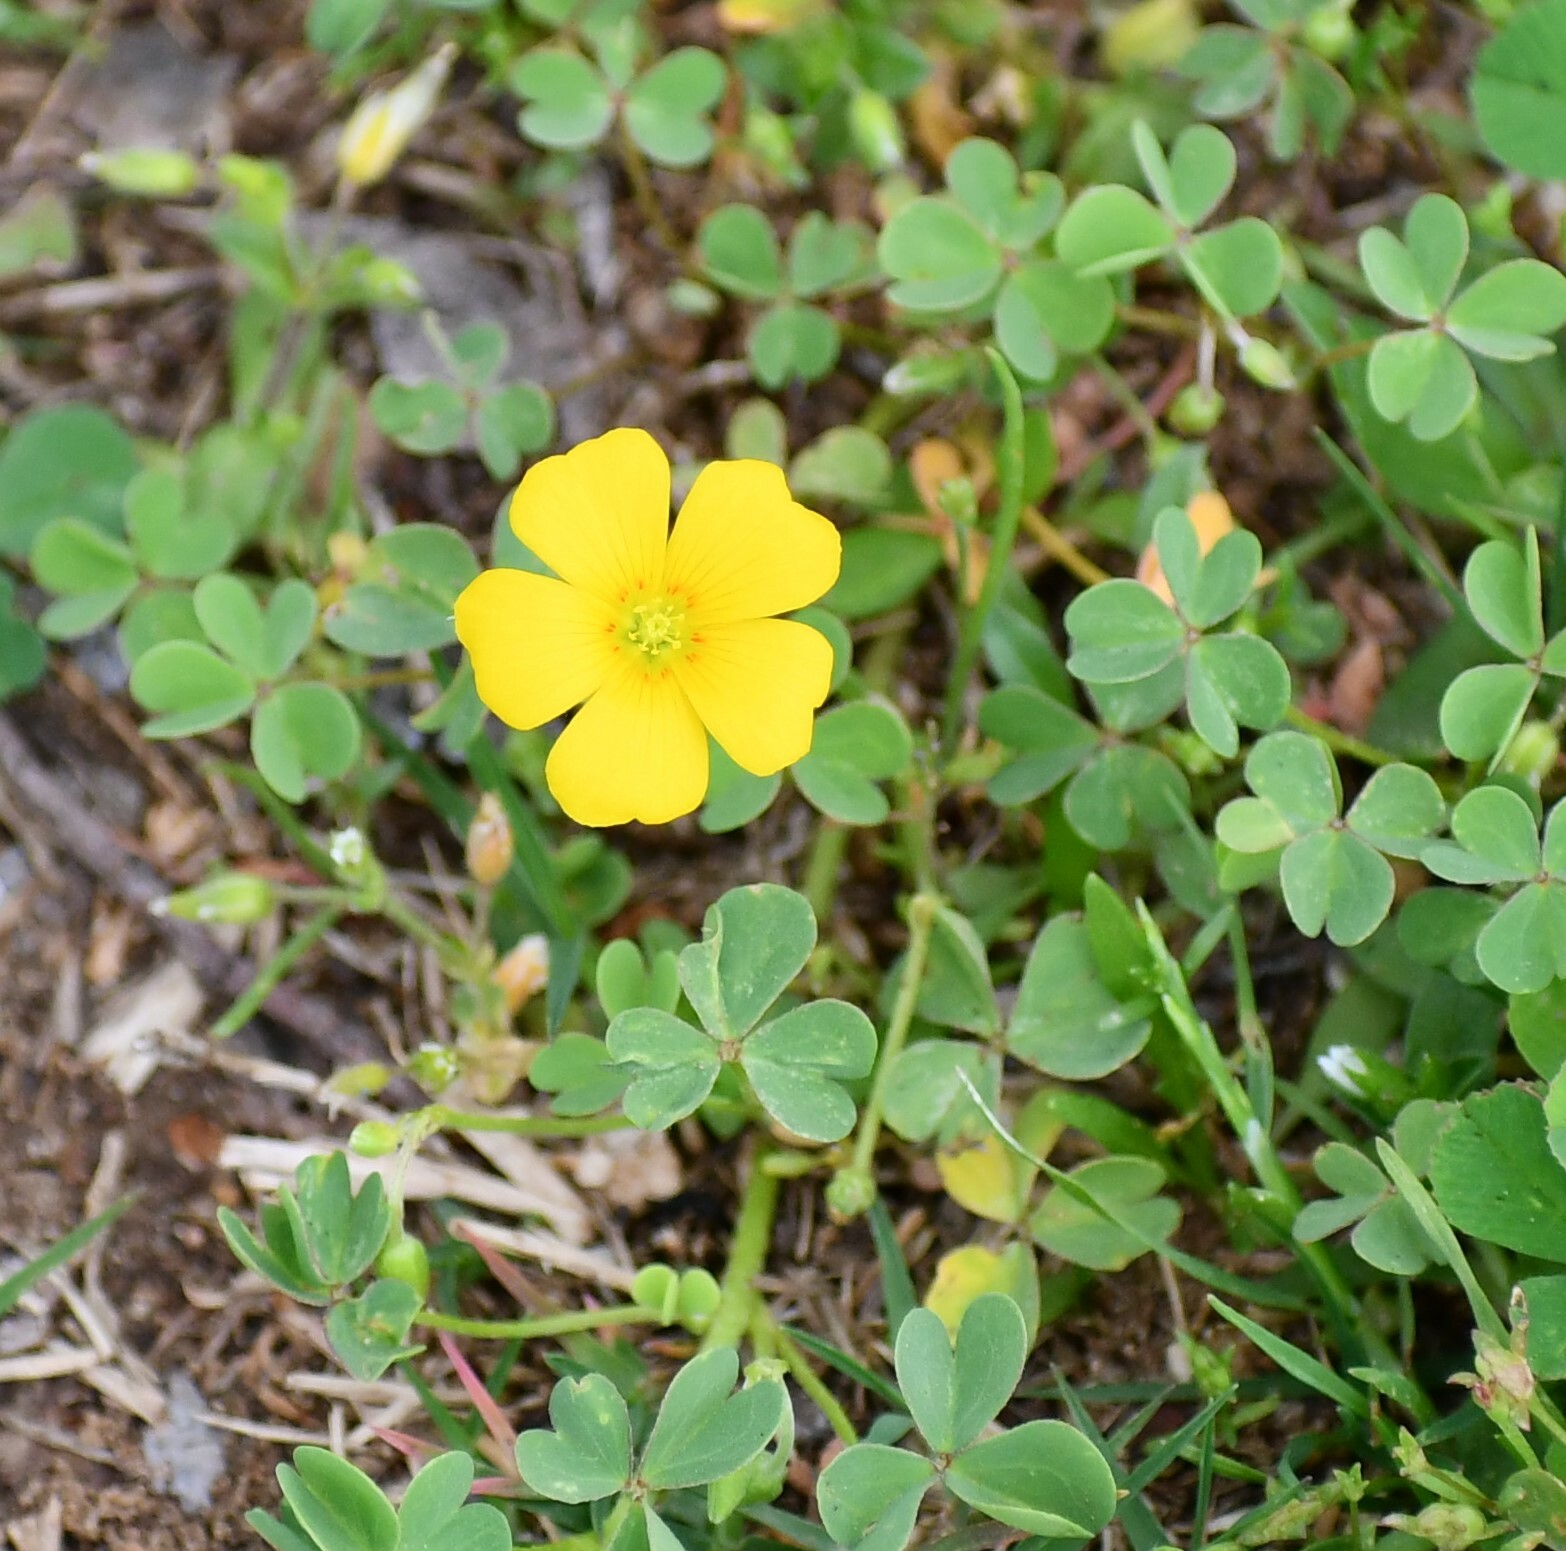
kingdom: Plantae
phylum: Tracheophyta
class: Magnoliopsida
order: Oxalidales
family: Oxalidaceae
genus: Oxalis
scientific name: Oxalis dillenii
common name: Sussex yellow-sorrel
